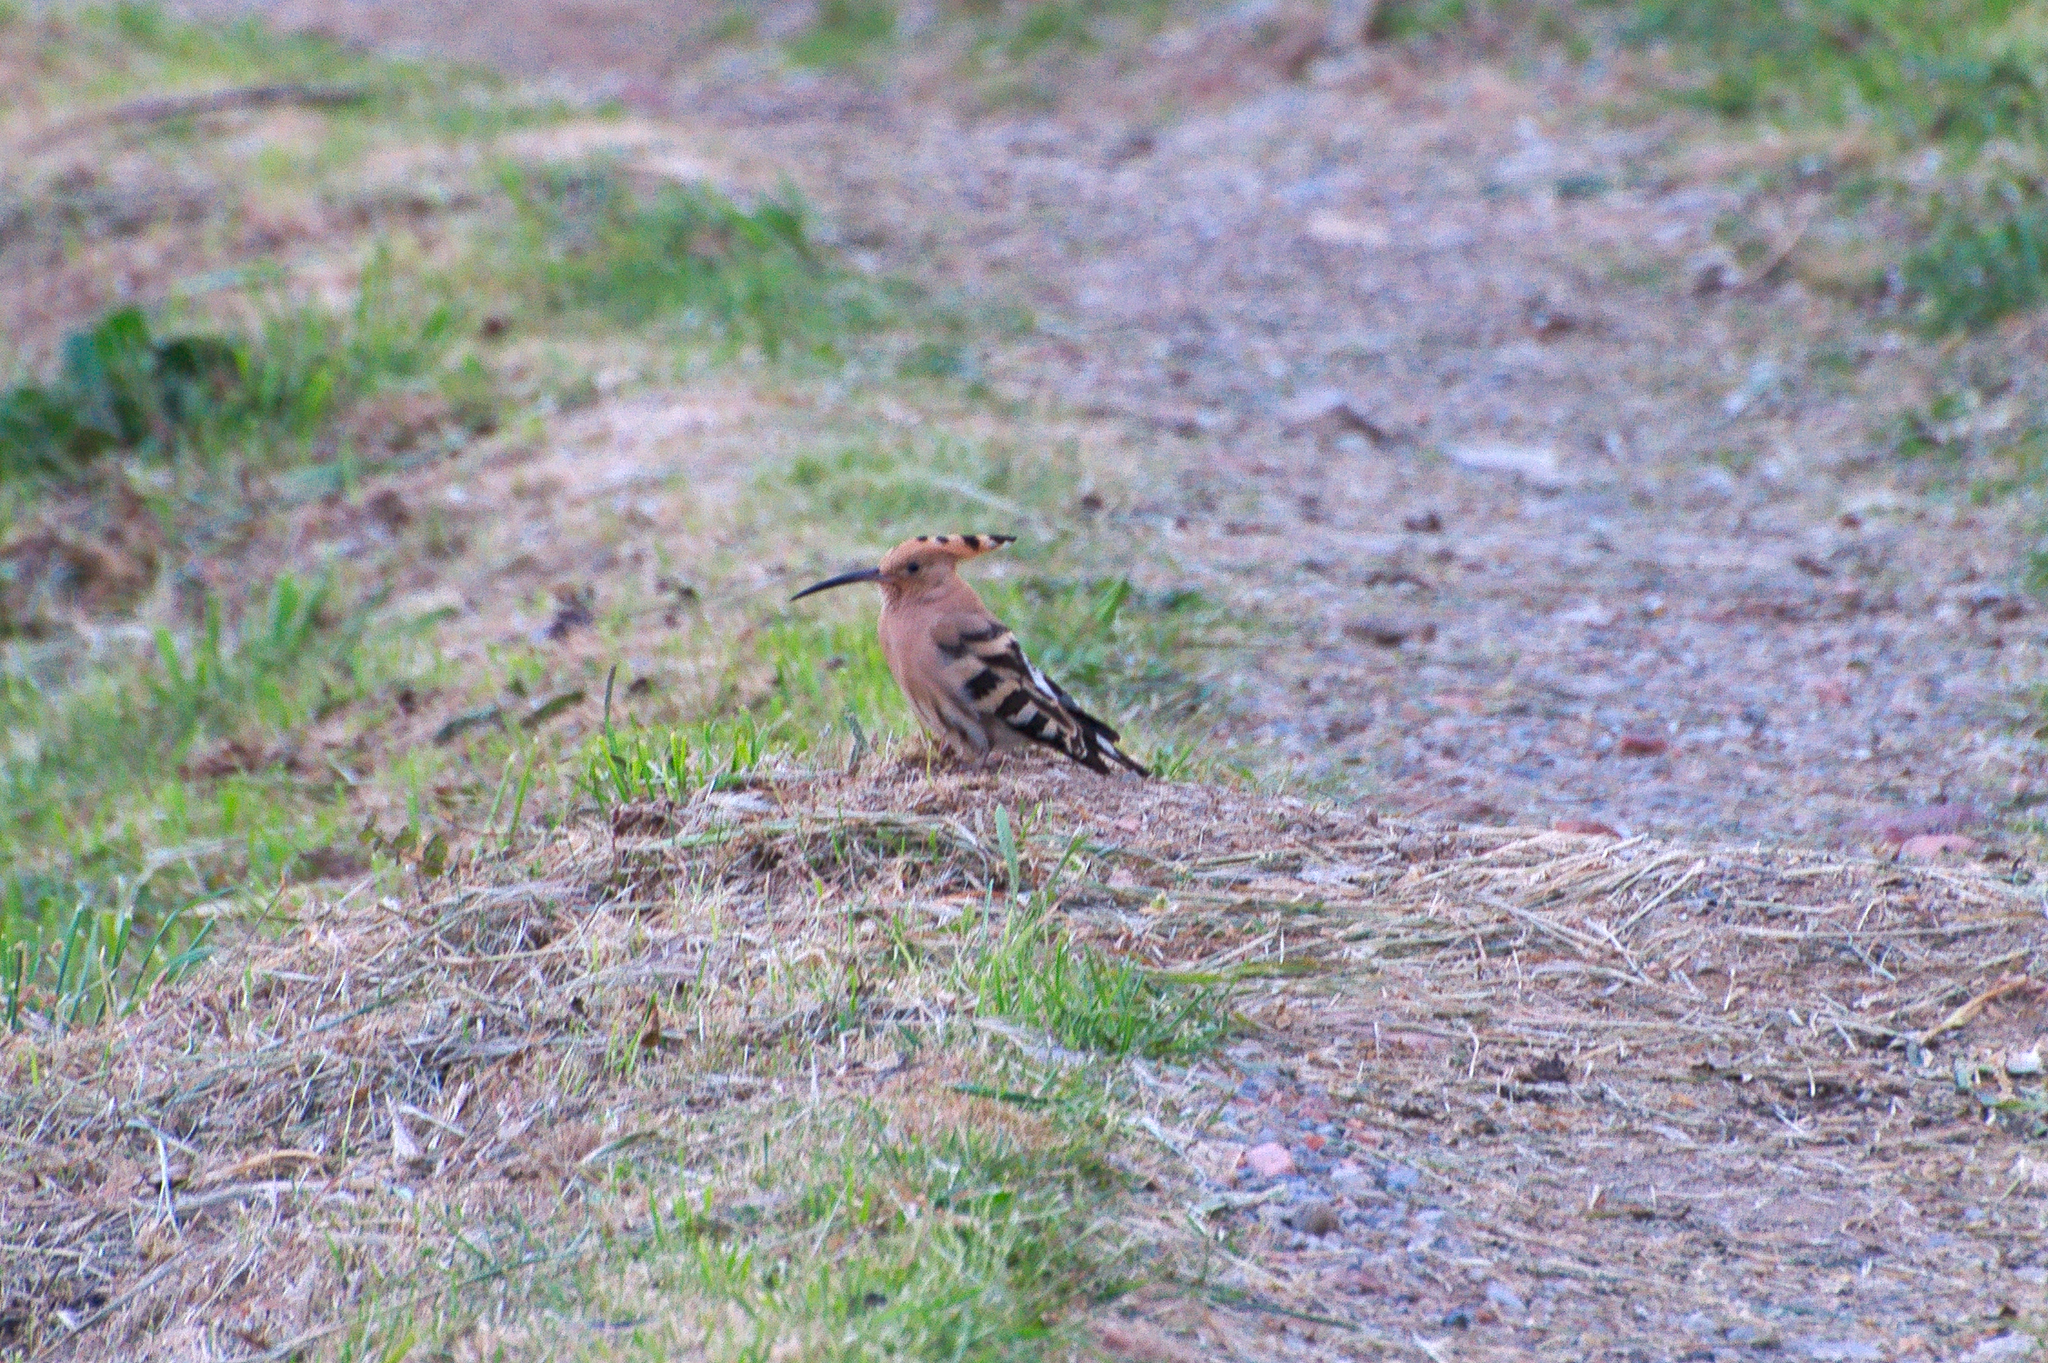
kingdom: Animalia
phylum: Chordata
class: Aves
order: Bucerotiformes
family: Upupidae
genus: Upupa
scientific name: Upupa epops
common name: Eurasian hoopoe
